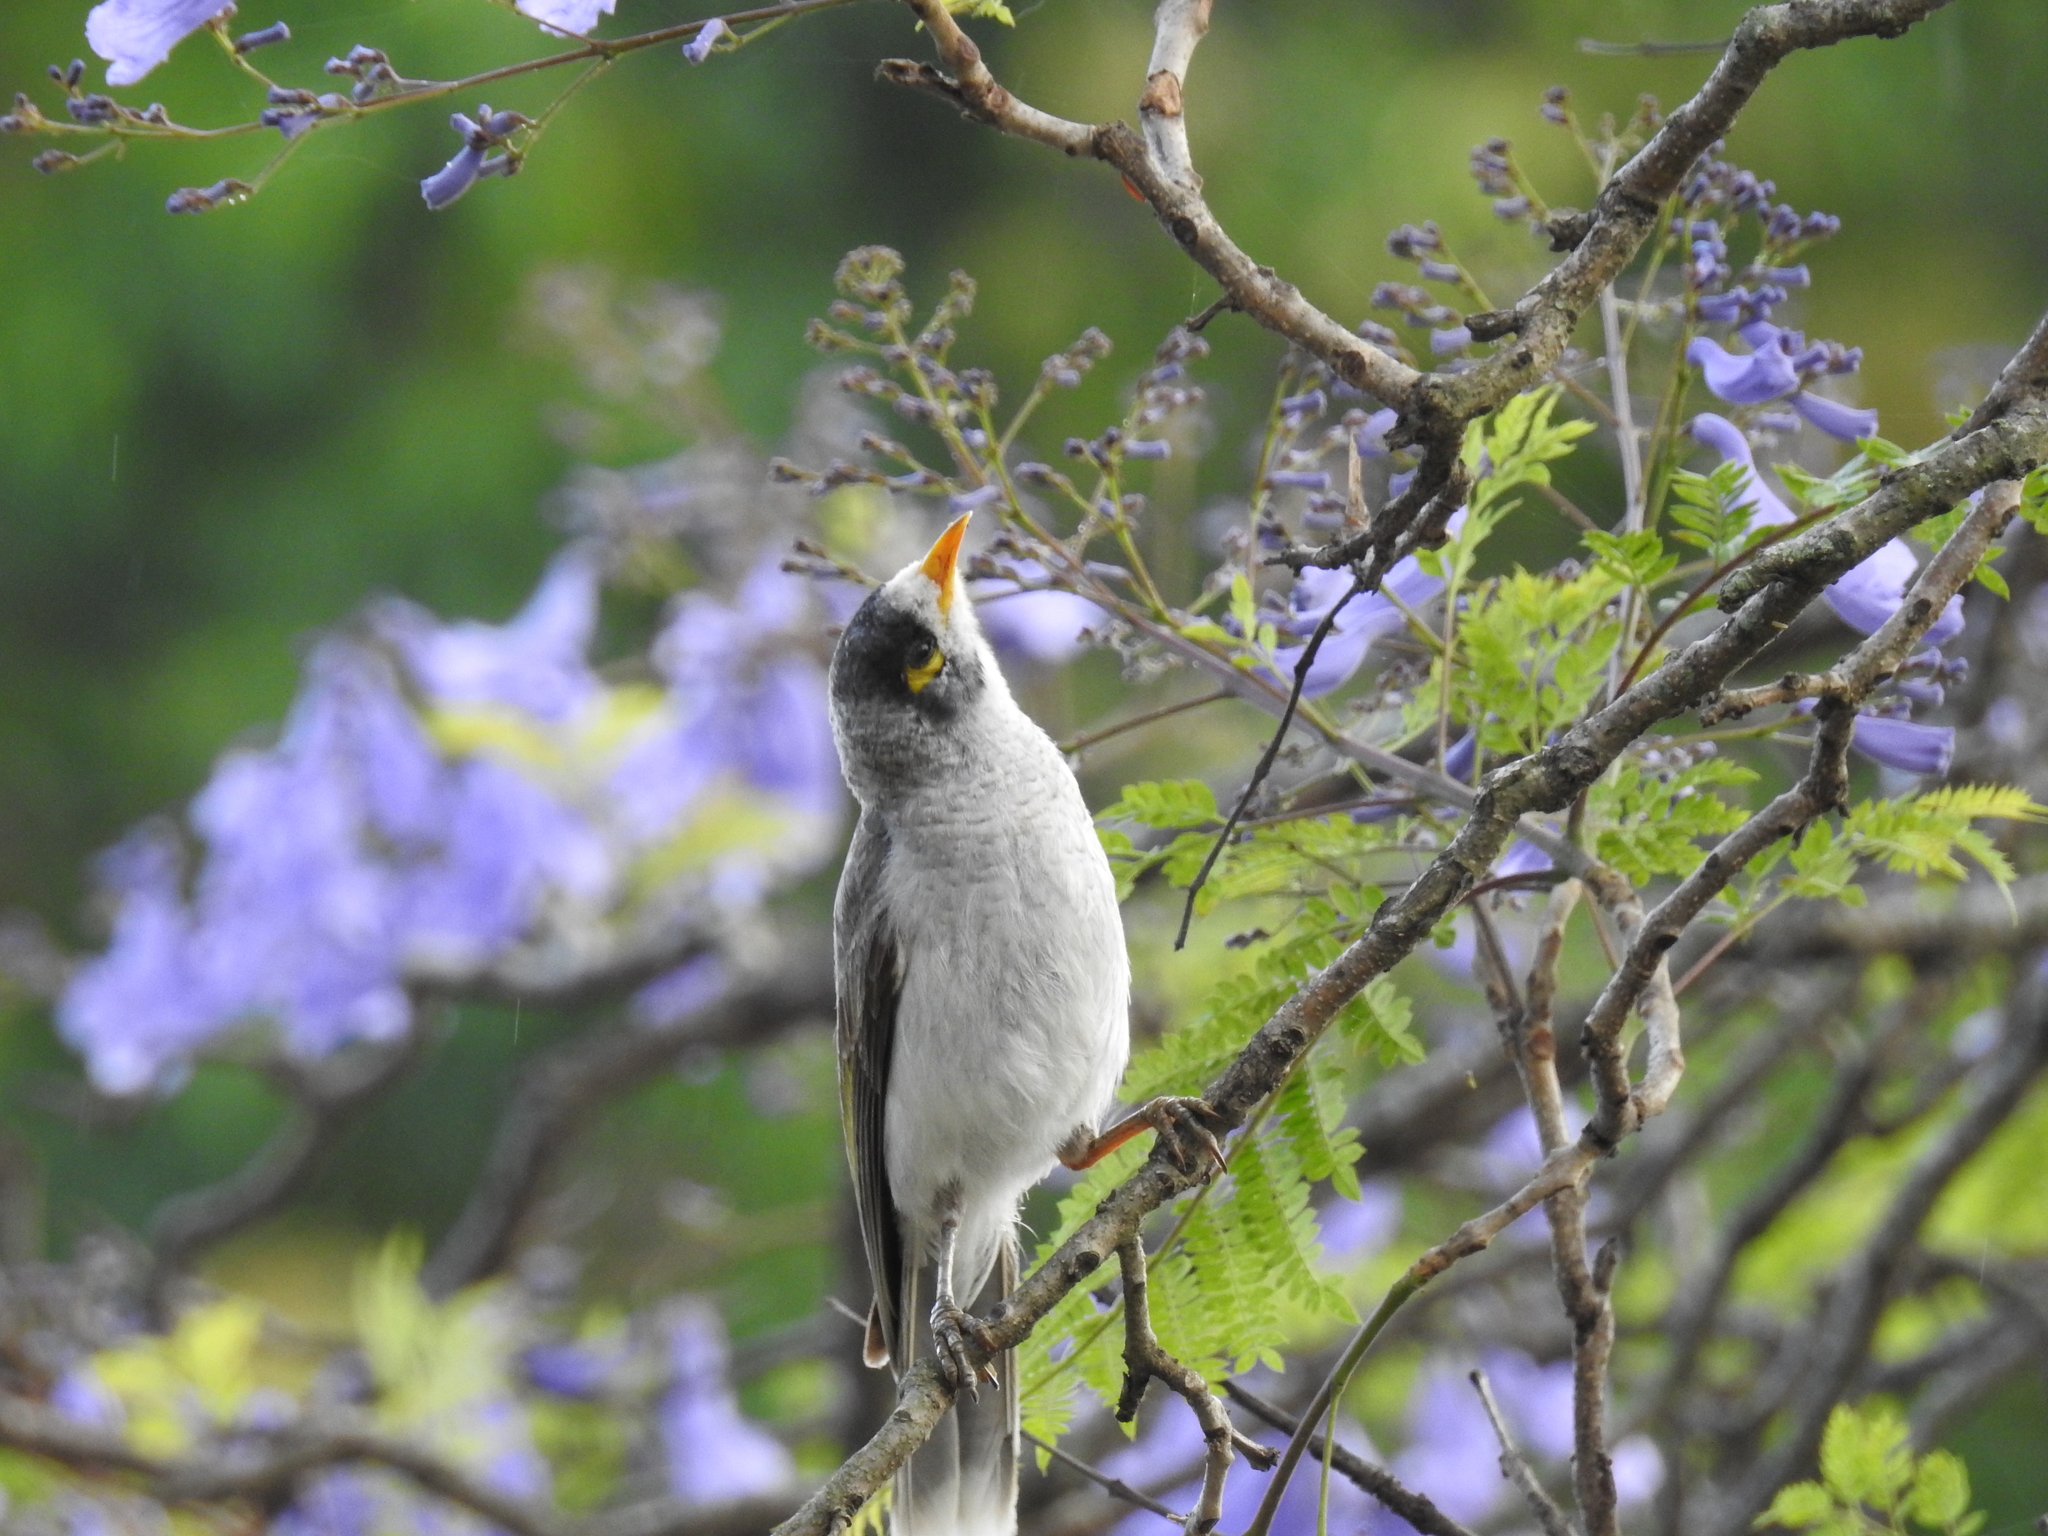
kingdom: Animalia
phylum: Chordata
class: Aves
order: Passeriformes
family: Meliphagidae
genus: Manorina
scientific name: Manorina melanocephala
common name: Noisy miner
